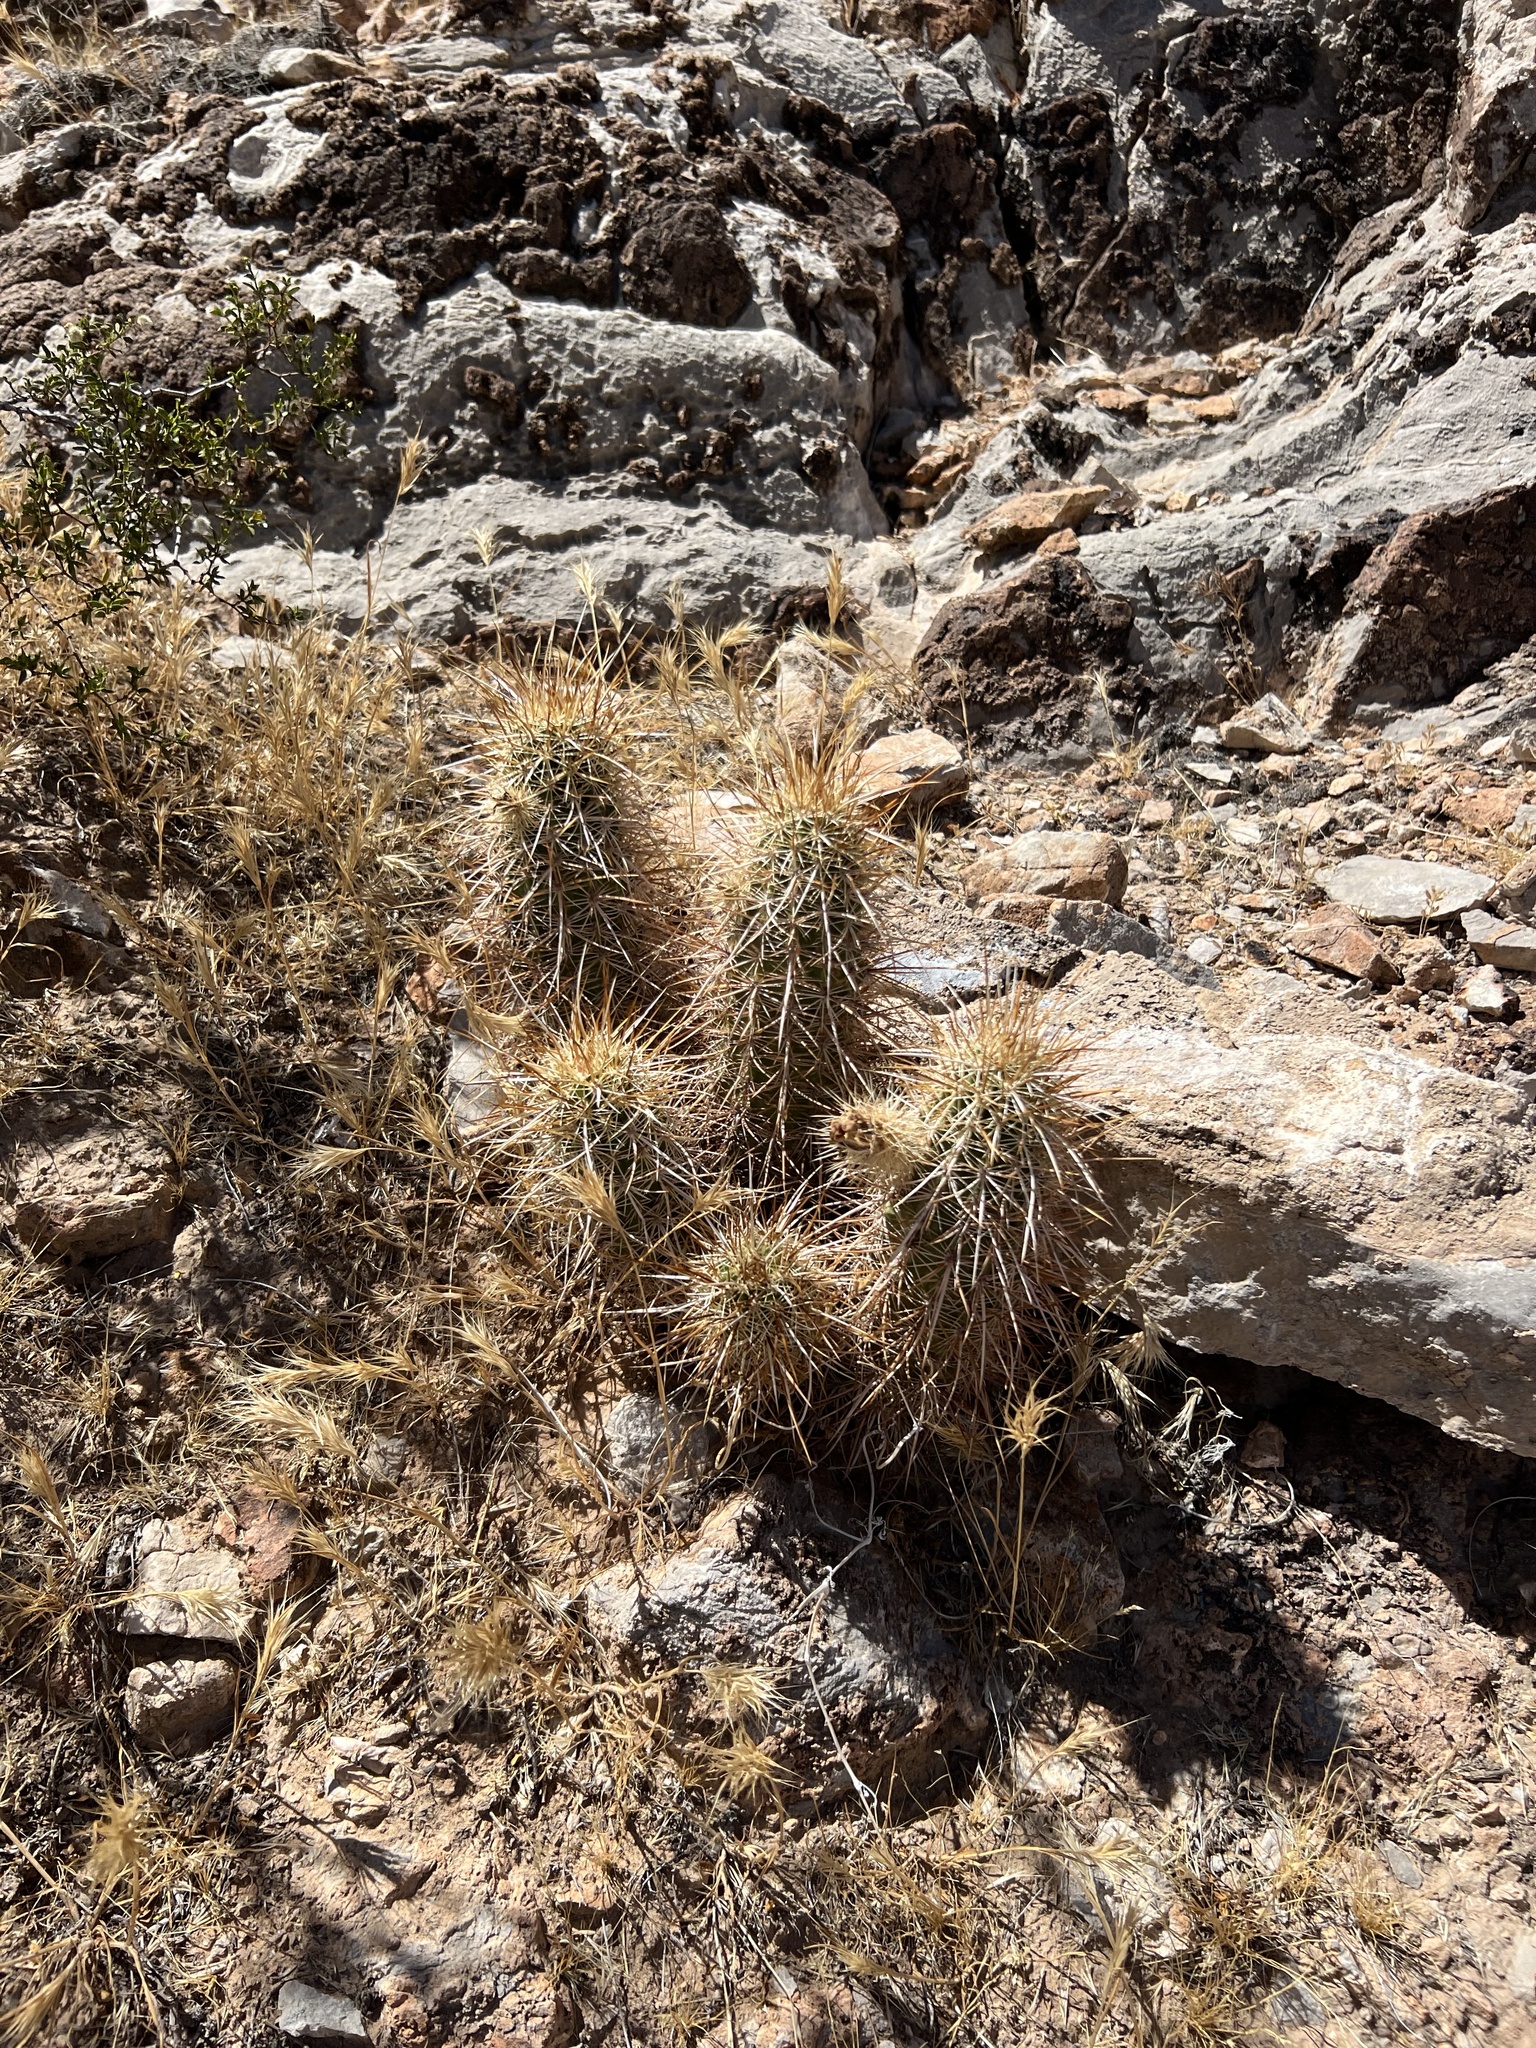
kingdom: Plantae
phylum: Tracheophyta
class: Magnoliopsida
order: Caryophyllales
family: Cactaceae
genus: Echinocereus
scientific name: Echinocereus engelmannii
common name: Engelmann's hedgehog cactus
